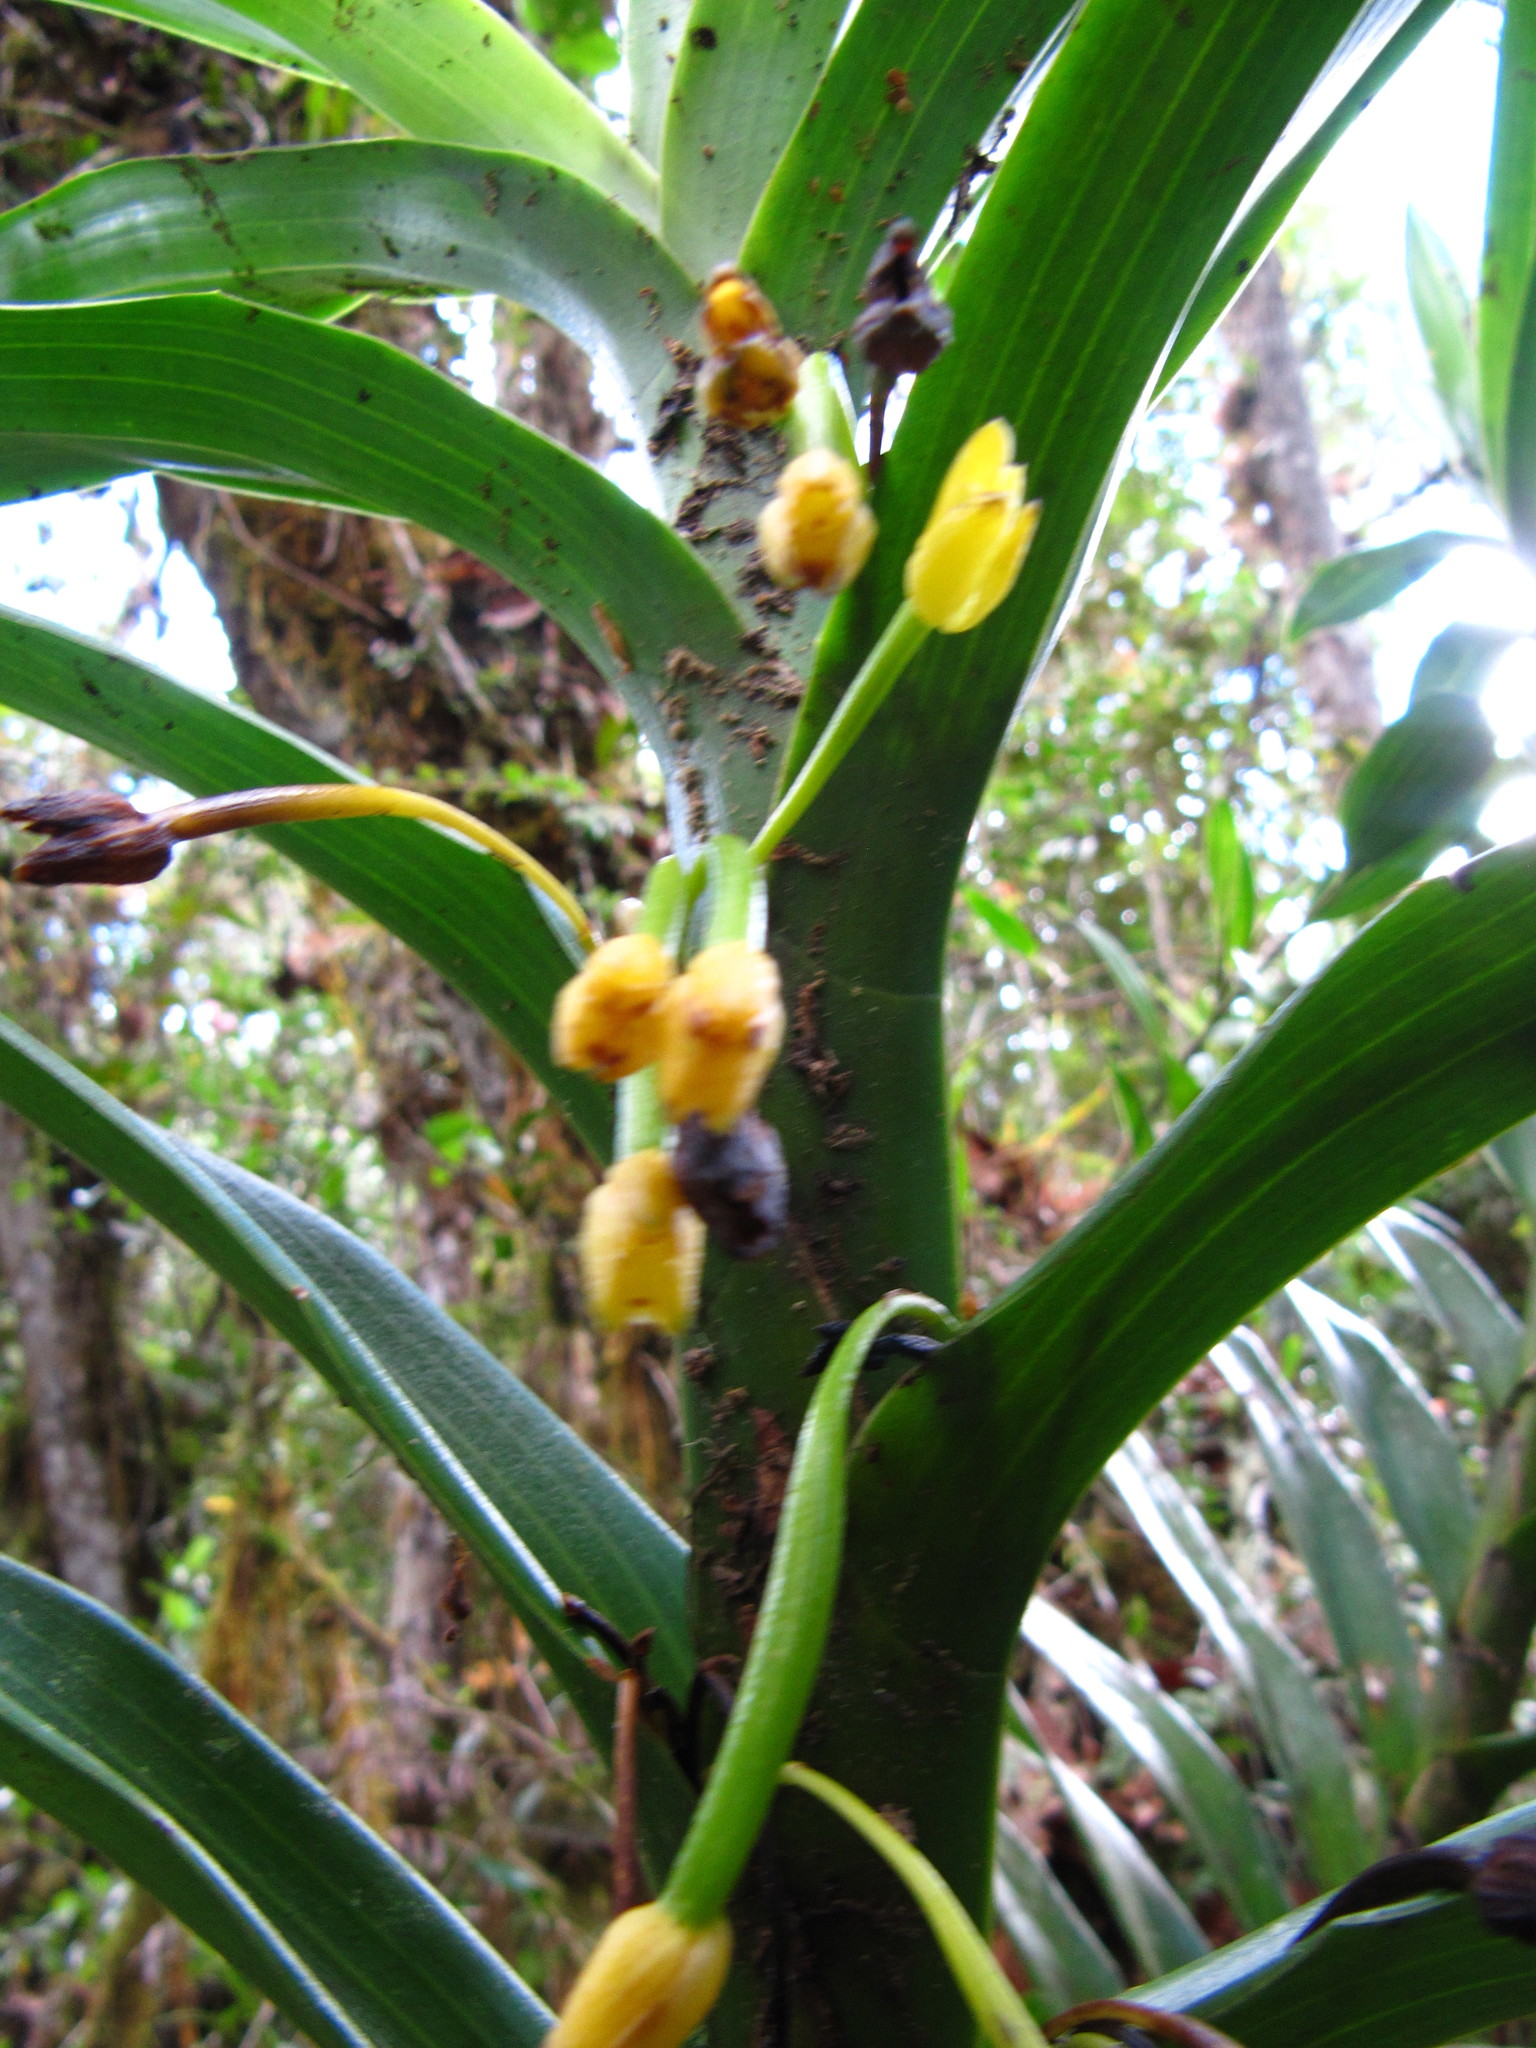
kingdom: Plantae
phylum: Tracheophyta
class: Liliopsida
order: Asparagales
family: Orchidaceae
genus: Maxillaria
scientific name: Maxillaria aurea
